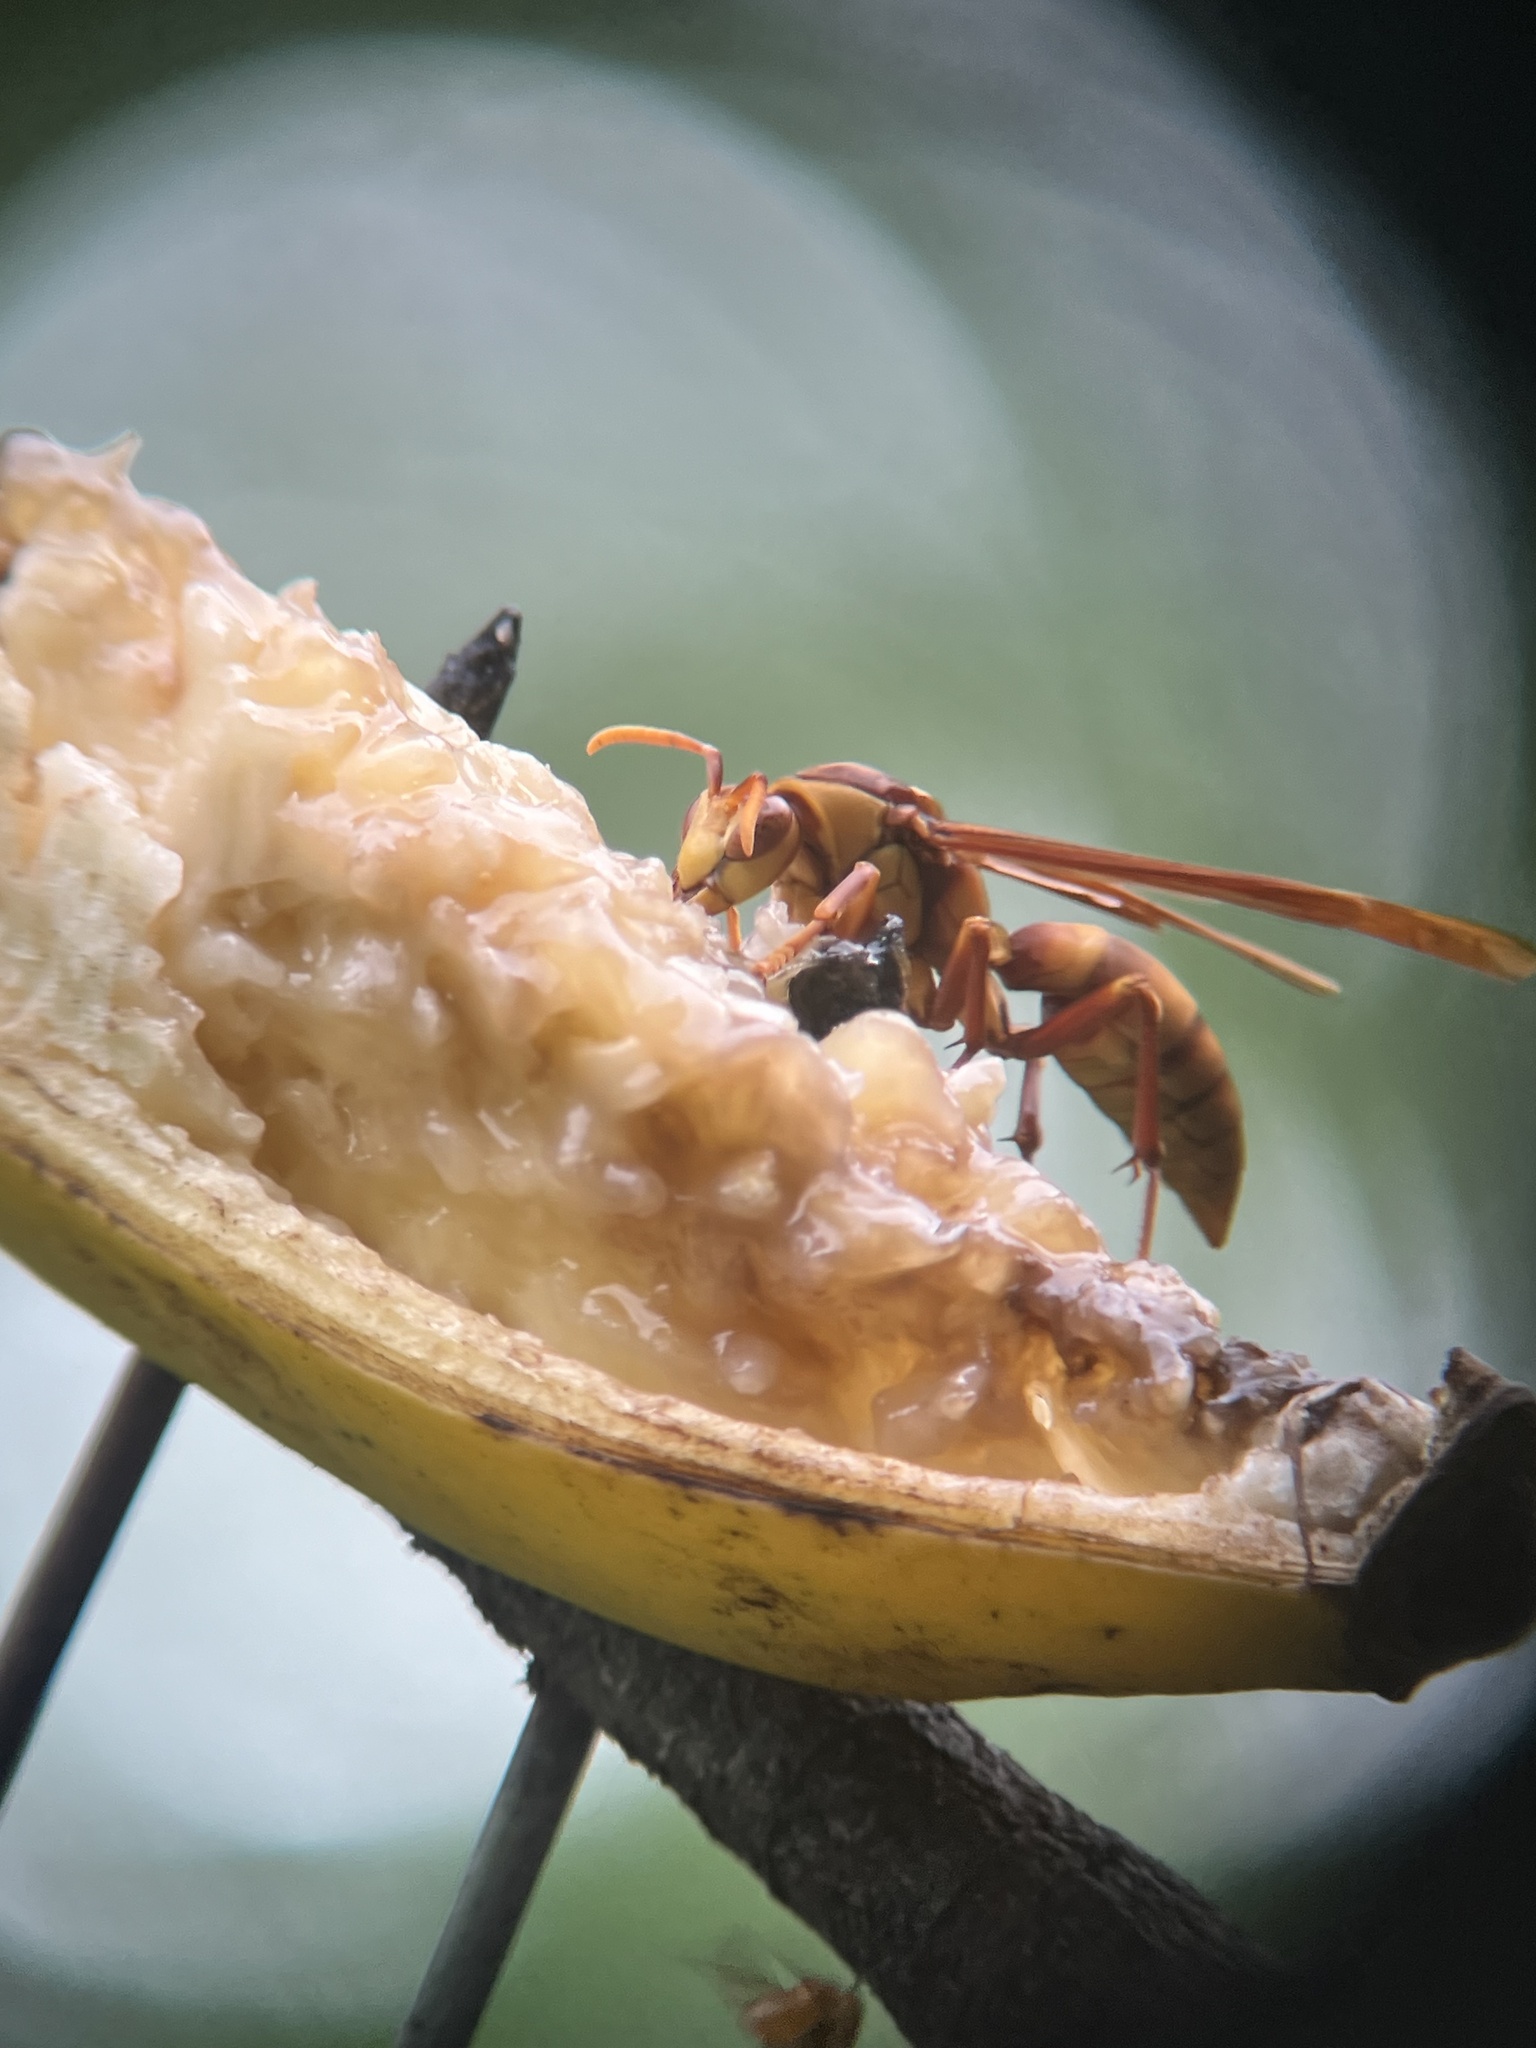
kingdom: Animalia
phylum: Arthropoda
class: Insecta
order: Hymenoptera
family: Eumenidae
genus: Polistes
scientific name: Polistes carnifex
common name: Paper wasp
